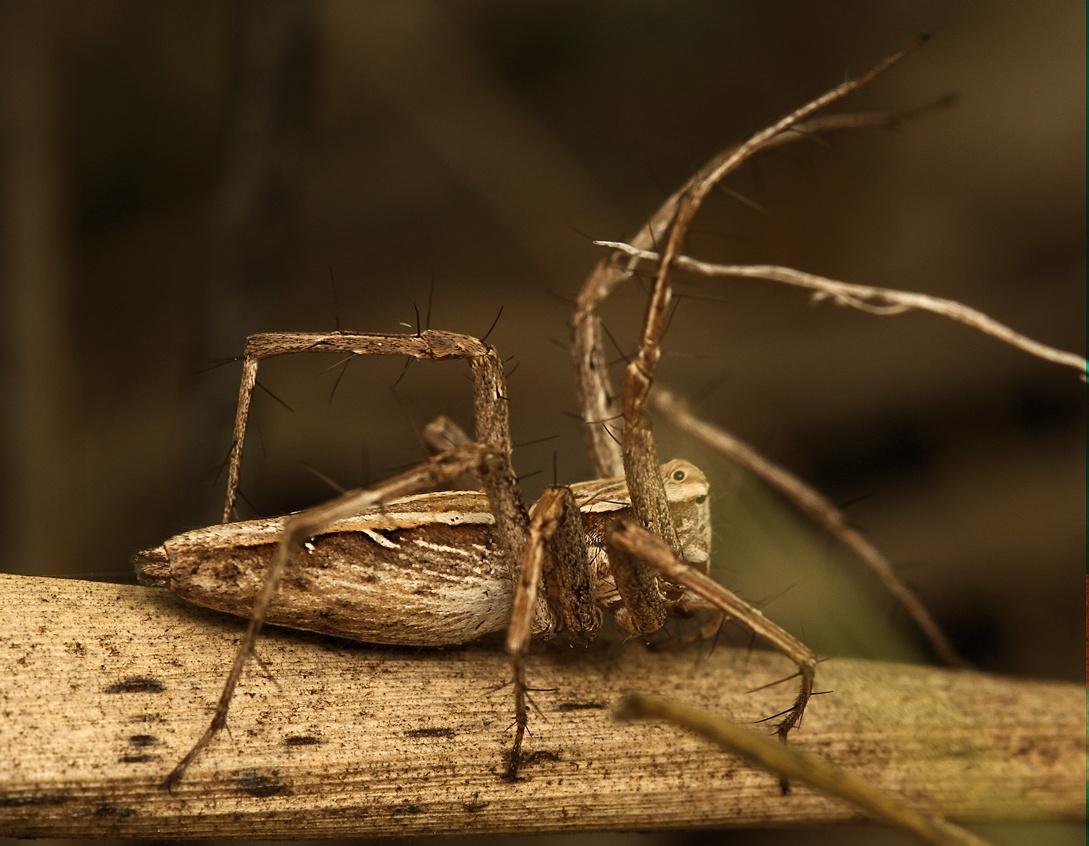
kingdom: Animalia
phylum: Arthropoda
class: Arachnida
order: Araneae
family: Oxyopidae
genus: Oxyopes
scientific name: Oxyopes jacksoni
